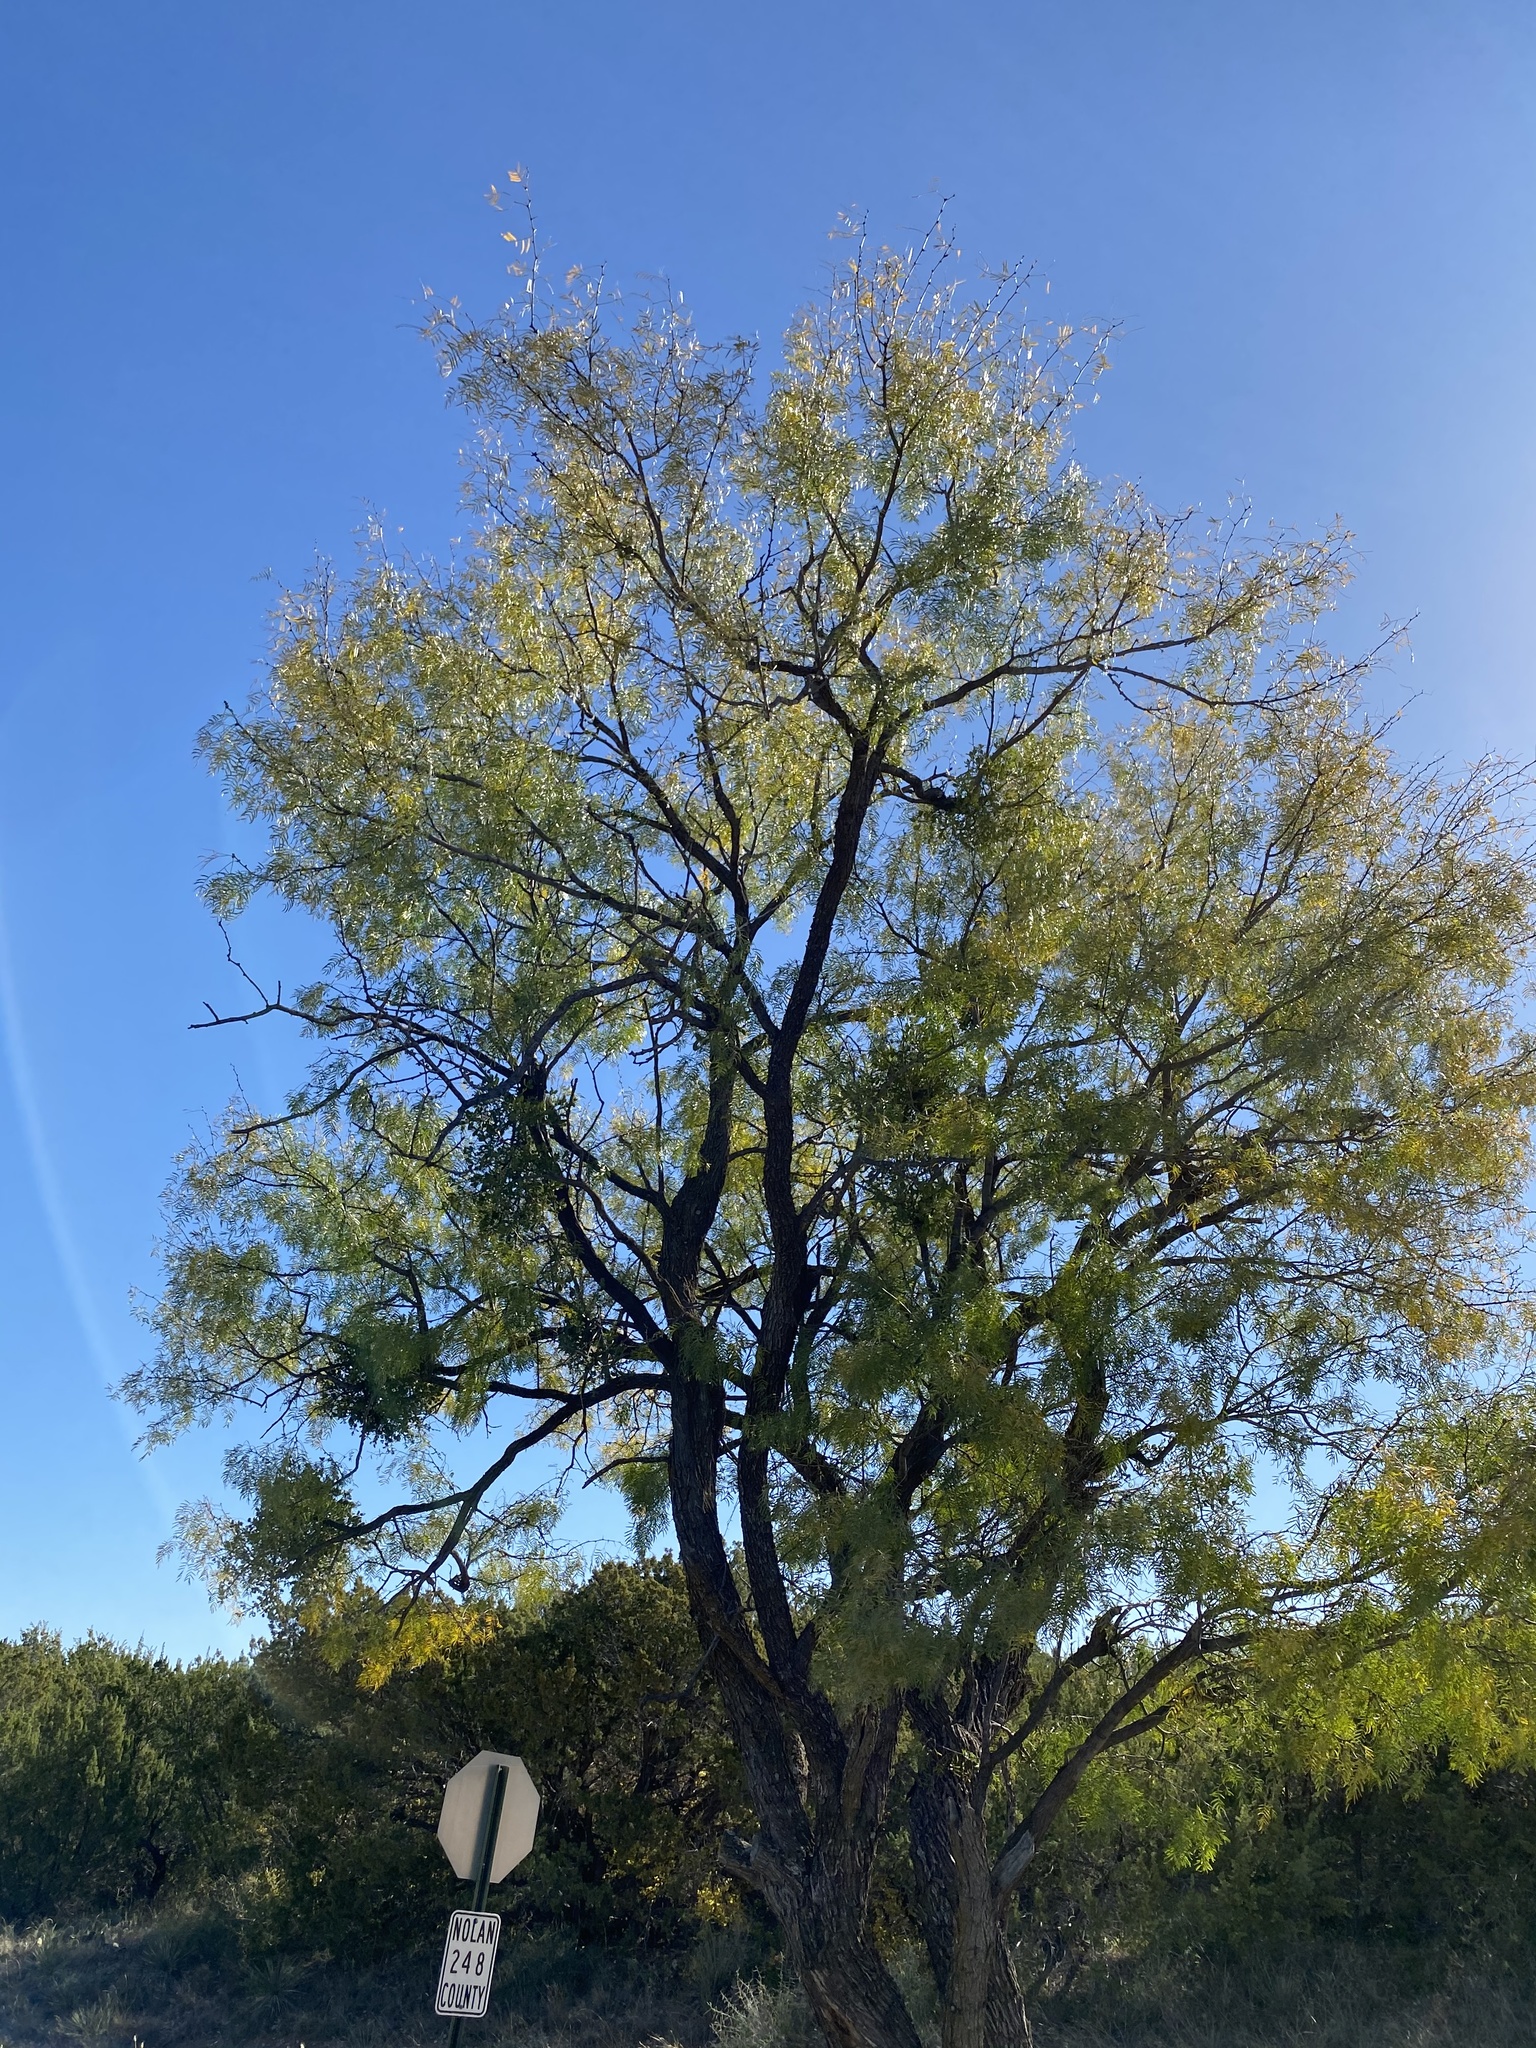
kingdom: Plantae
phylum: Tracheophyta
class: Magnoliopsida
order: Fabales
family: Fabaceae
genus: Prosopis
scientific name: Prosopis glandulosa
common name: Honey mesquite
